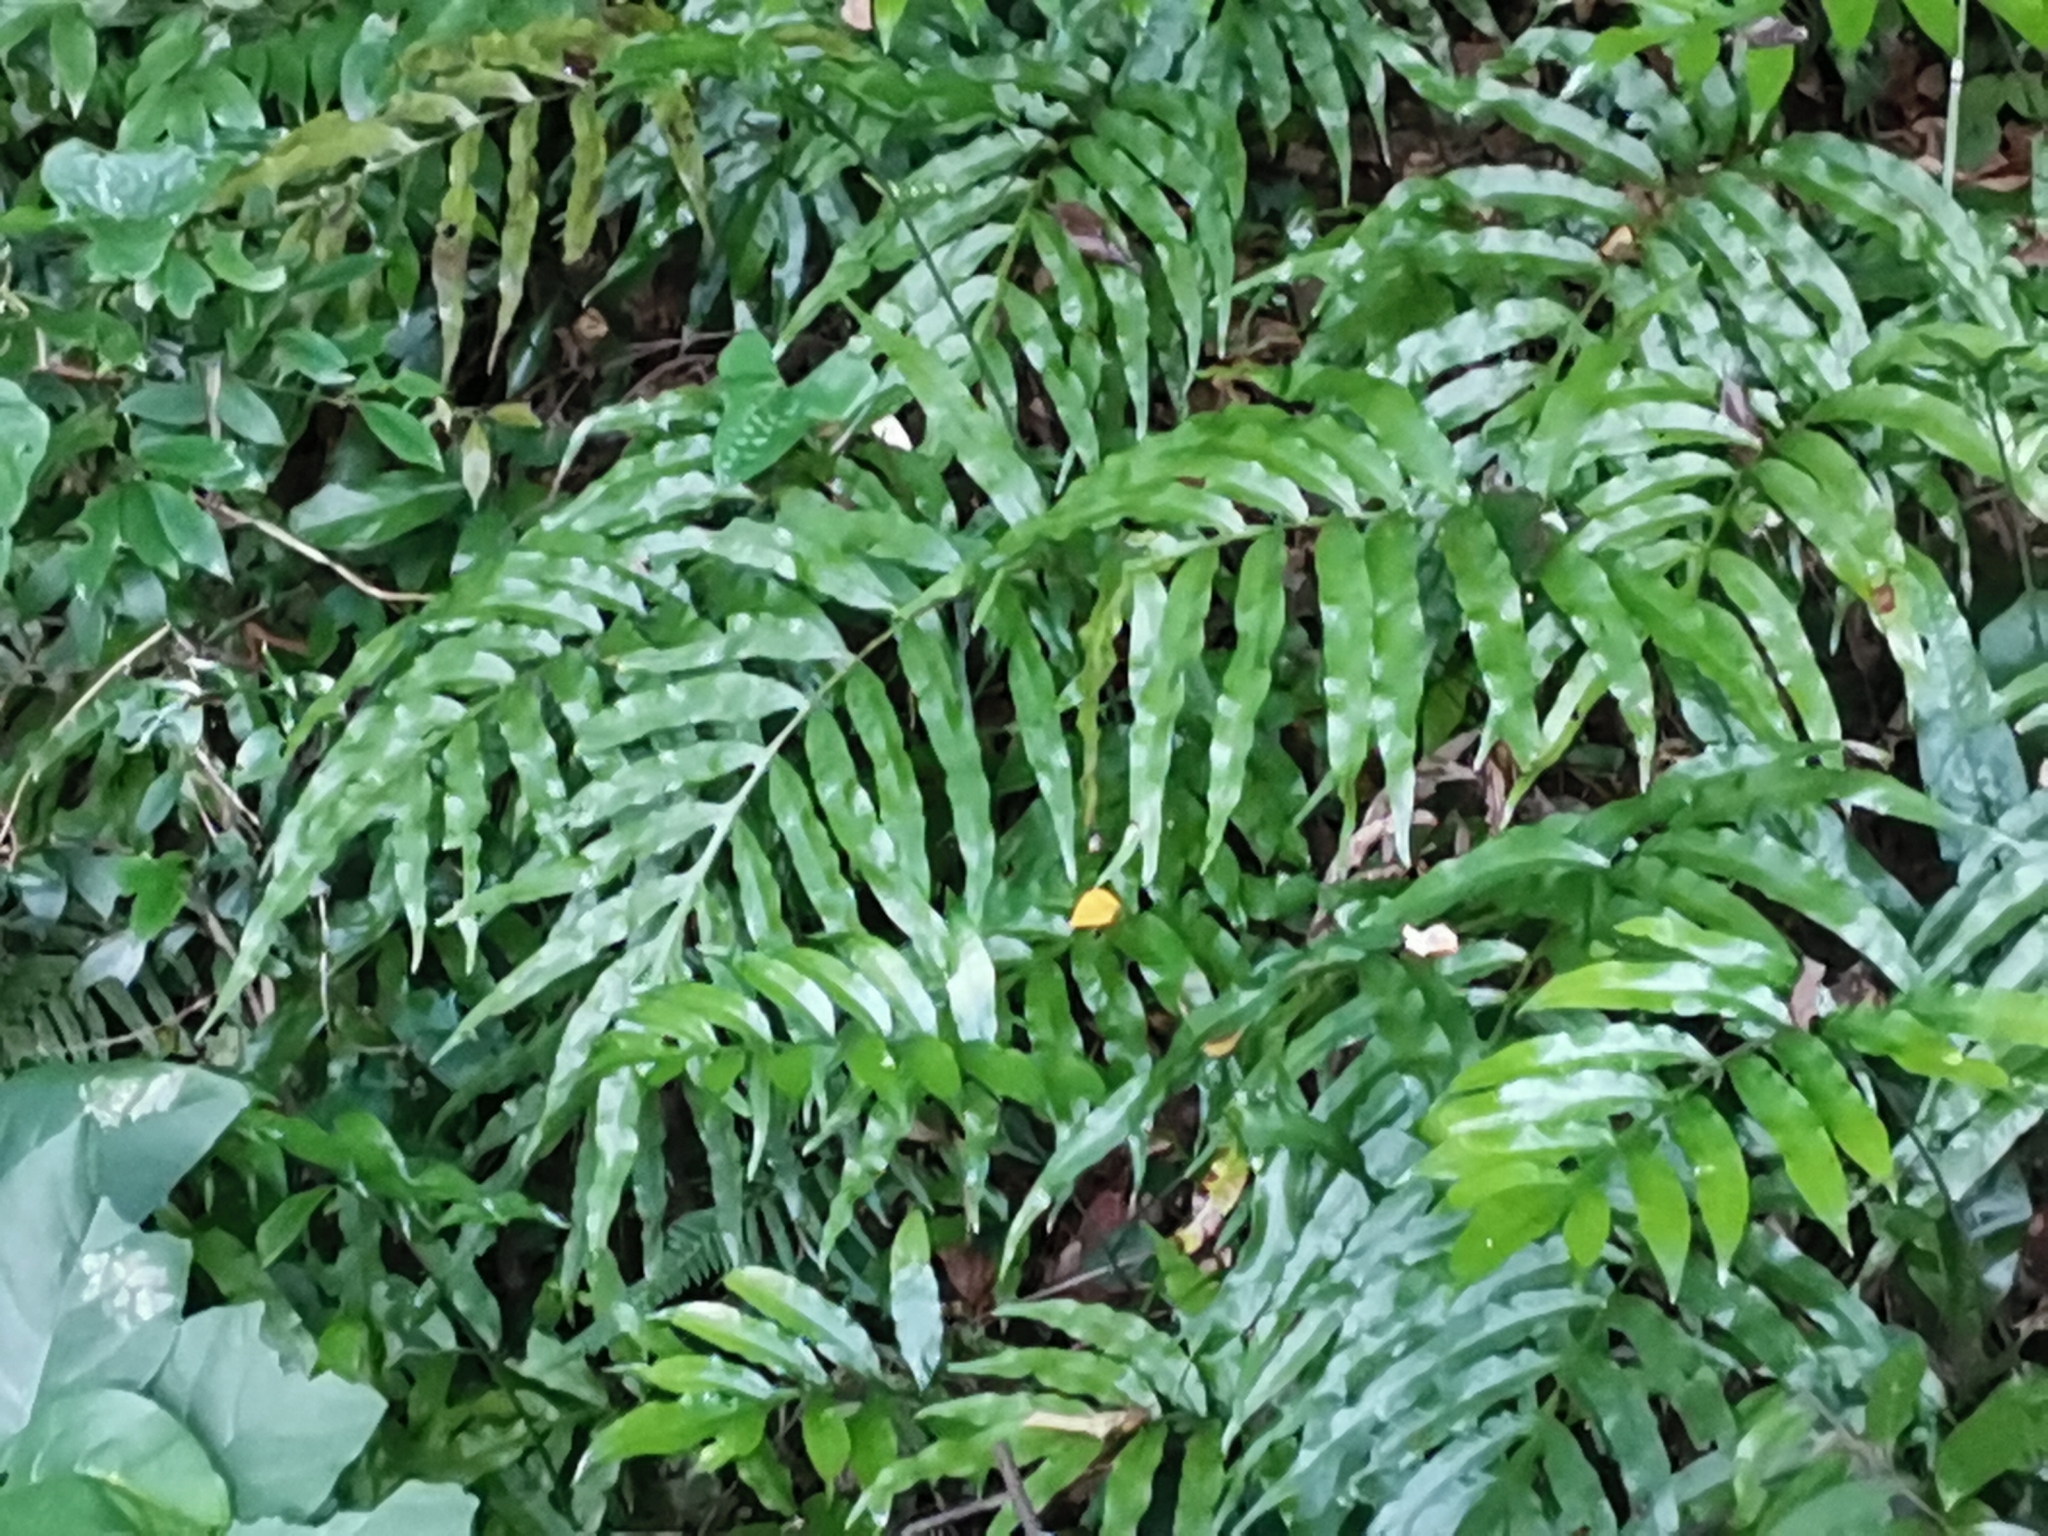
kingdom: Plantae
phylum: Tracheophyta
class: Polypodiopsida
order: Polypodiales
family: Polypodiaceae
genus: Leptochilus
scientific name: Leptochilus ellipticus
